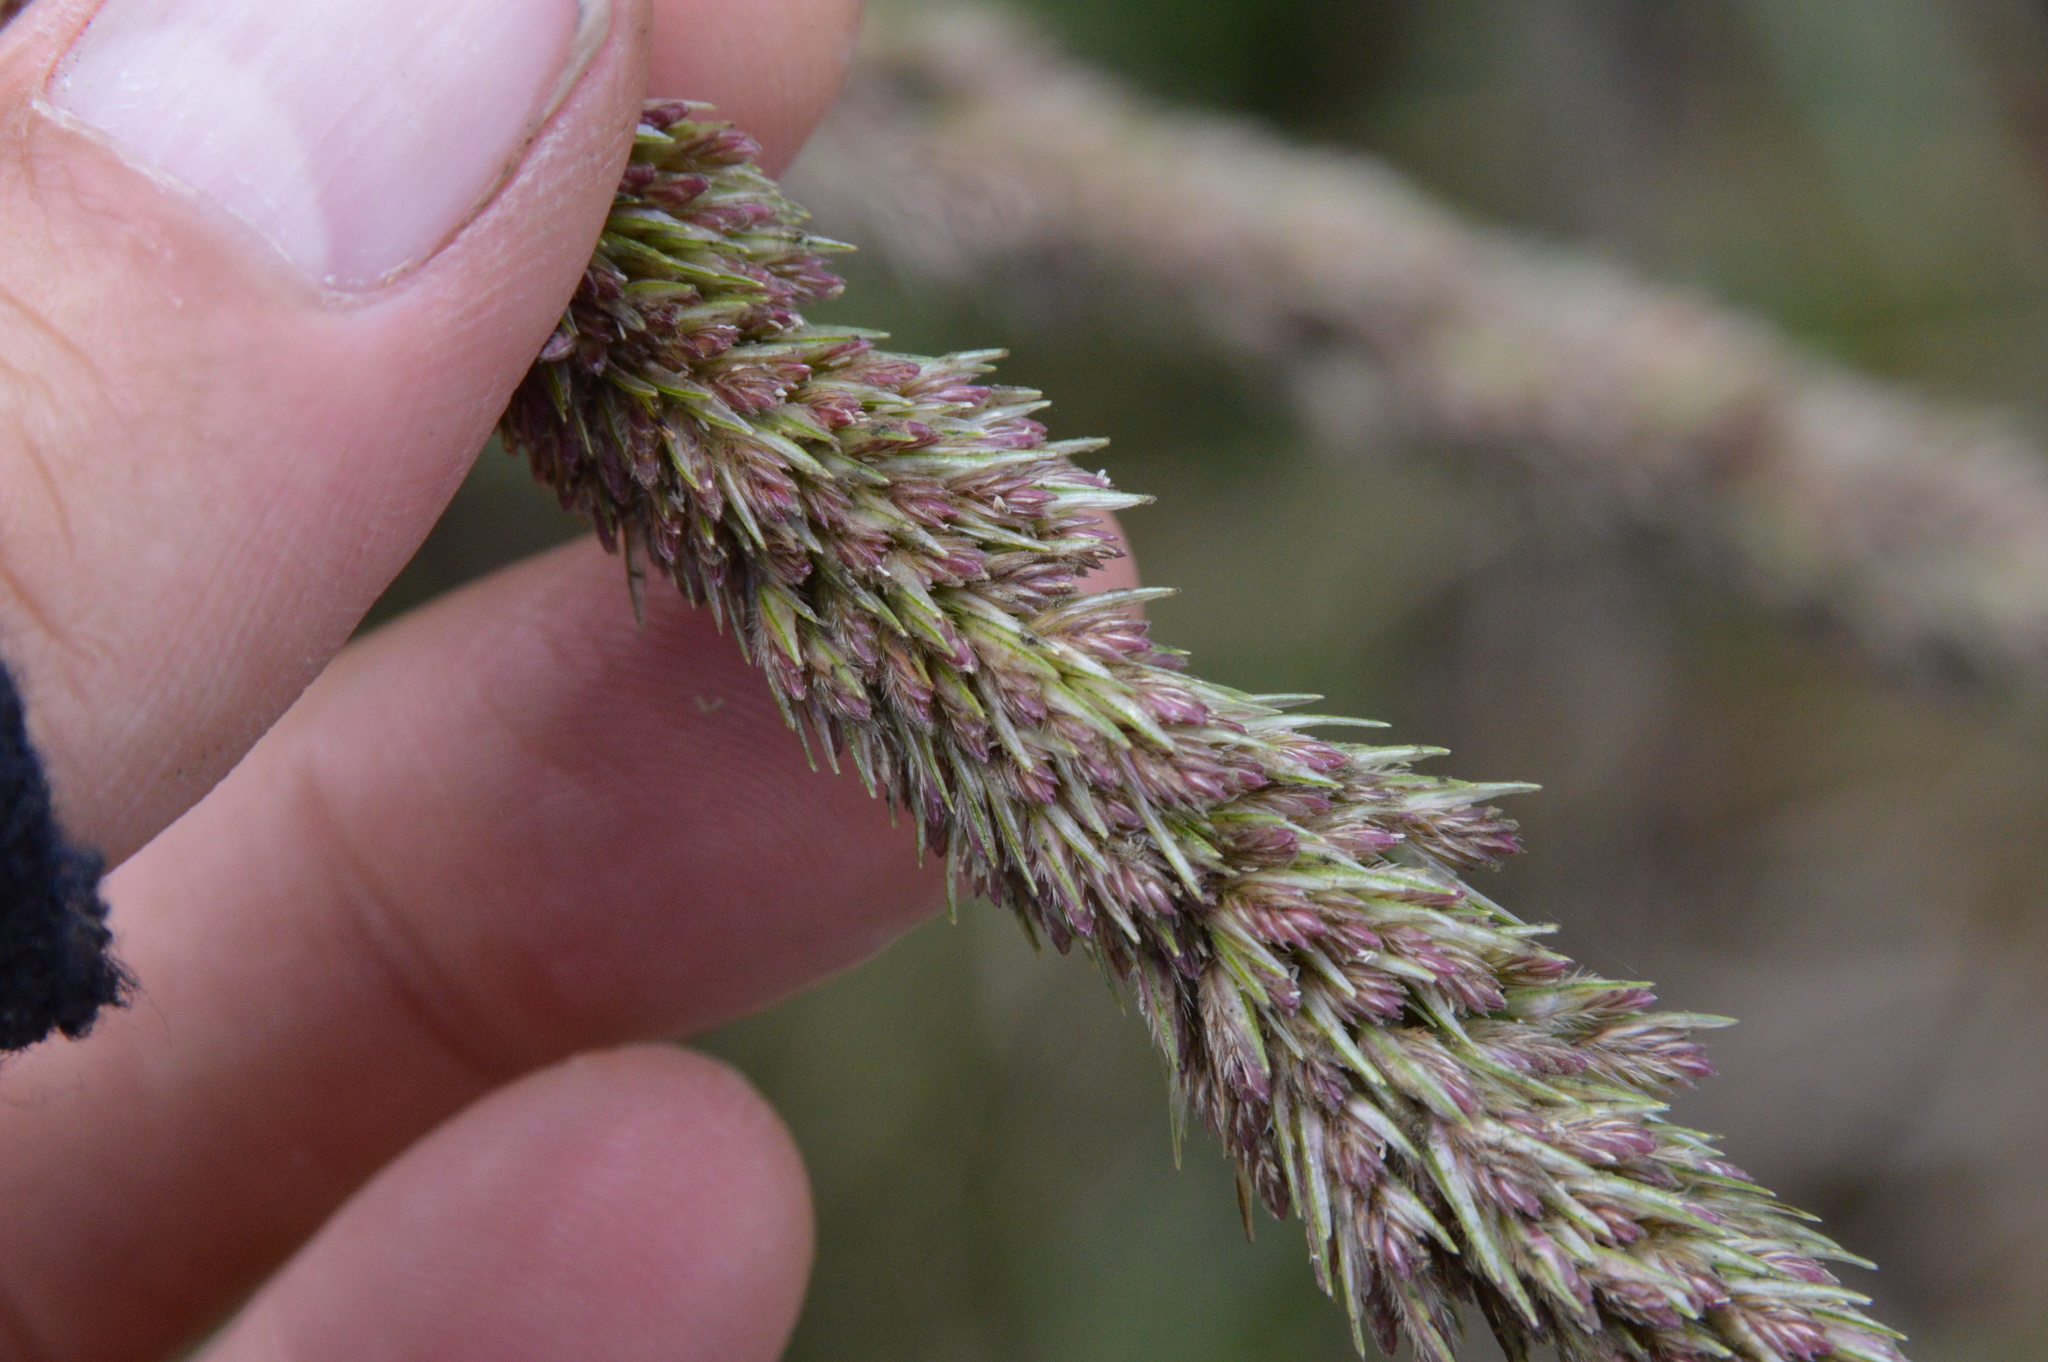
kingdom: Plantae
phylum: Tracheophyta
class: Liliopsida
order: Poales
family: Poaceae
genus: Tridens
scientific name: Tridens strictus
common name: Long-spike tridens
